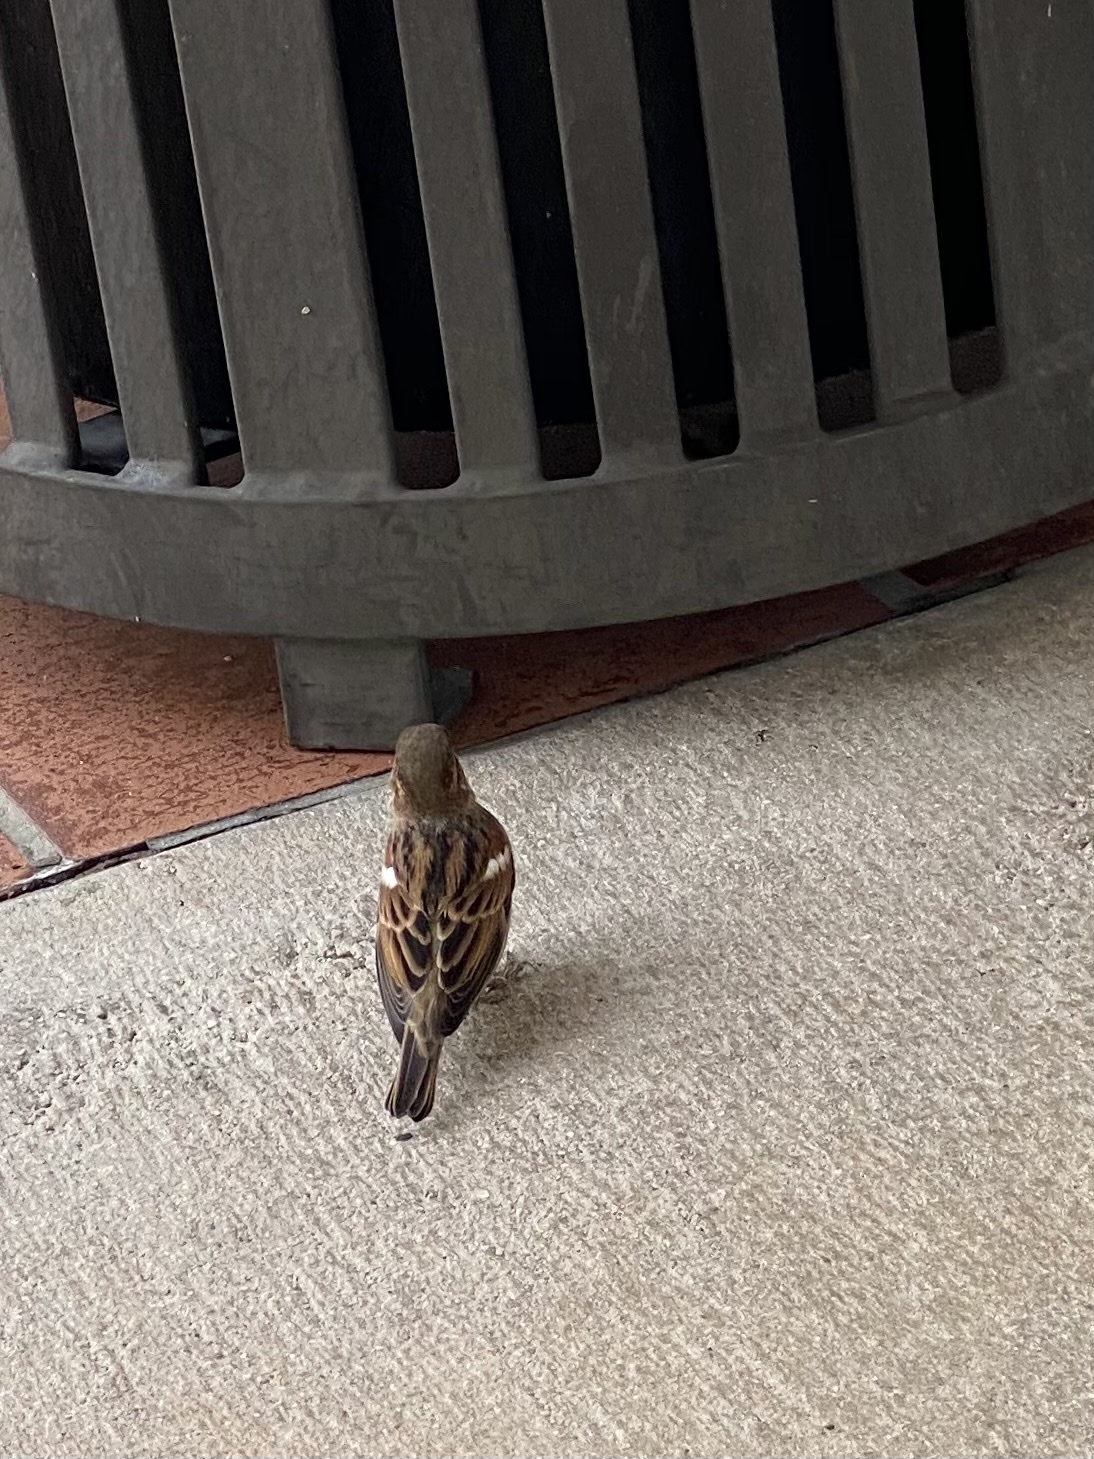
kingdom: Animalia
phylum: Chordata
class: Aves
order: Passeriformes
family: Passeridae
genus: Passer
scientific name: Passer domesticus
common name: House sparrow
